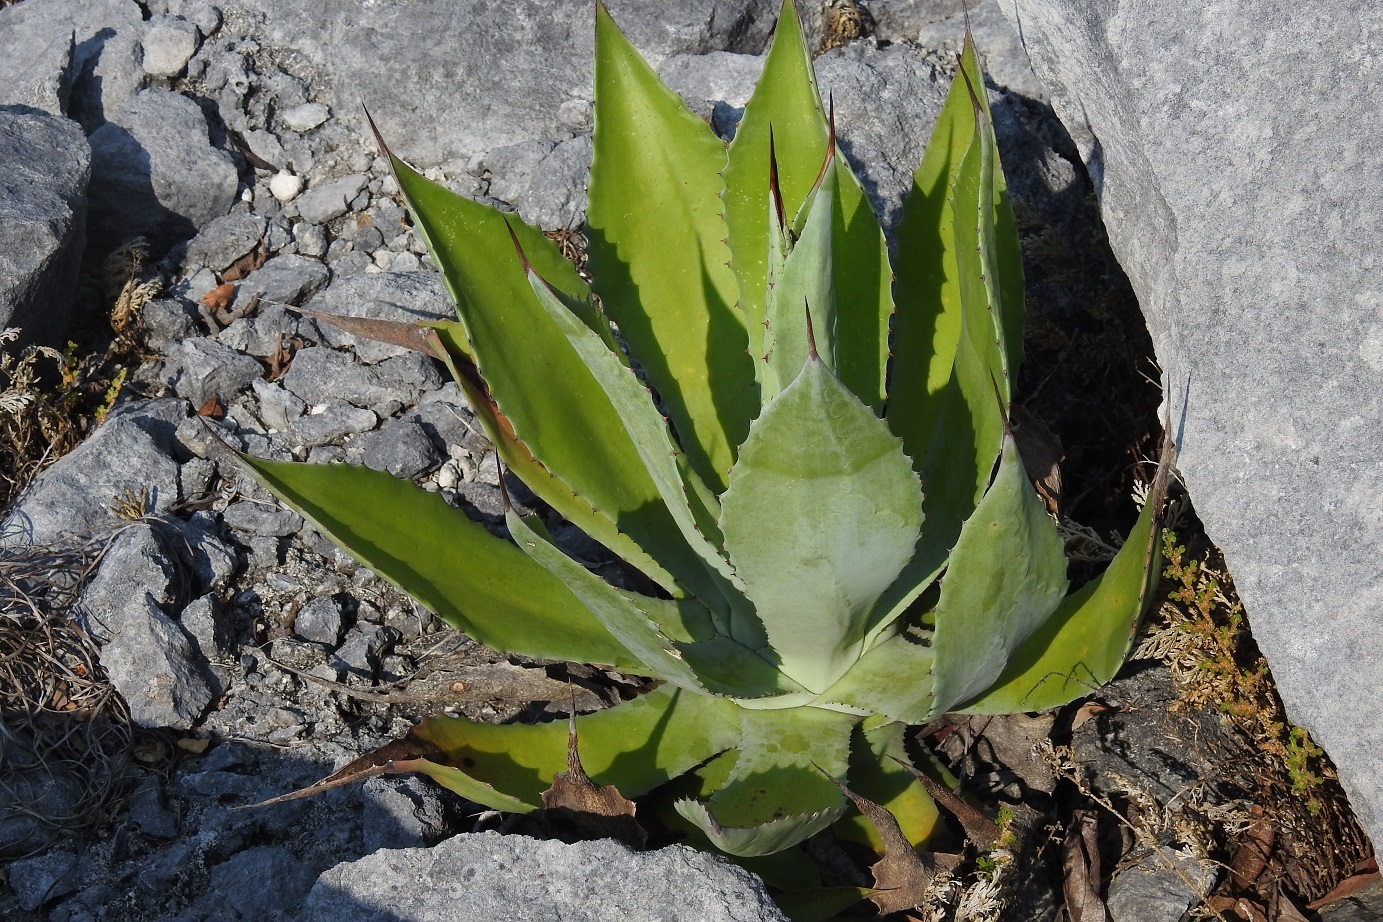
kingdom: Plantae
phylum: Tracheophyta
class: Liliopsida
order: Asparagales
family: Asparagaceae
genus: Agave
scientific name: Agave congesta
